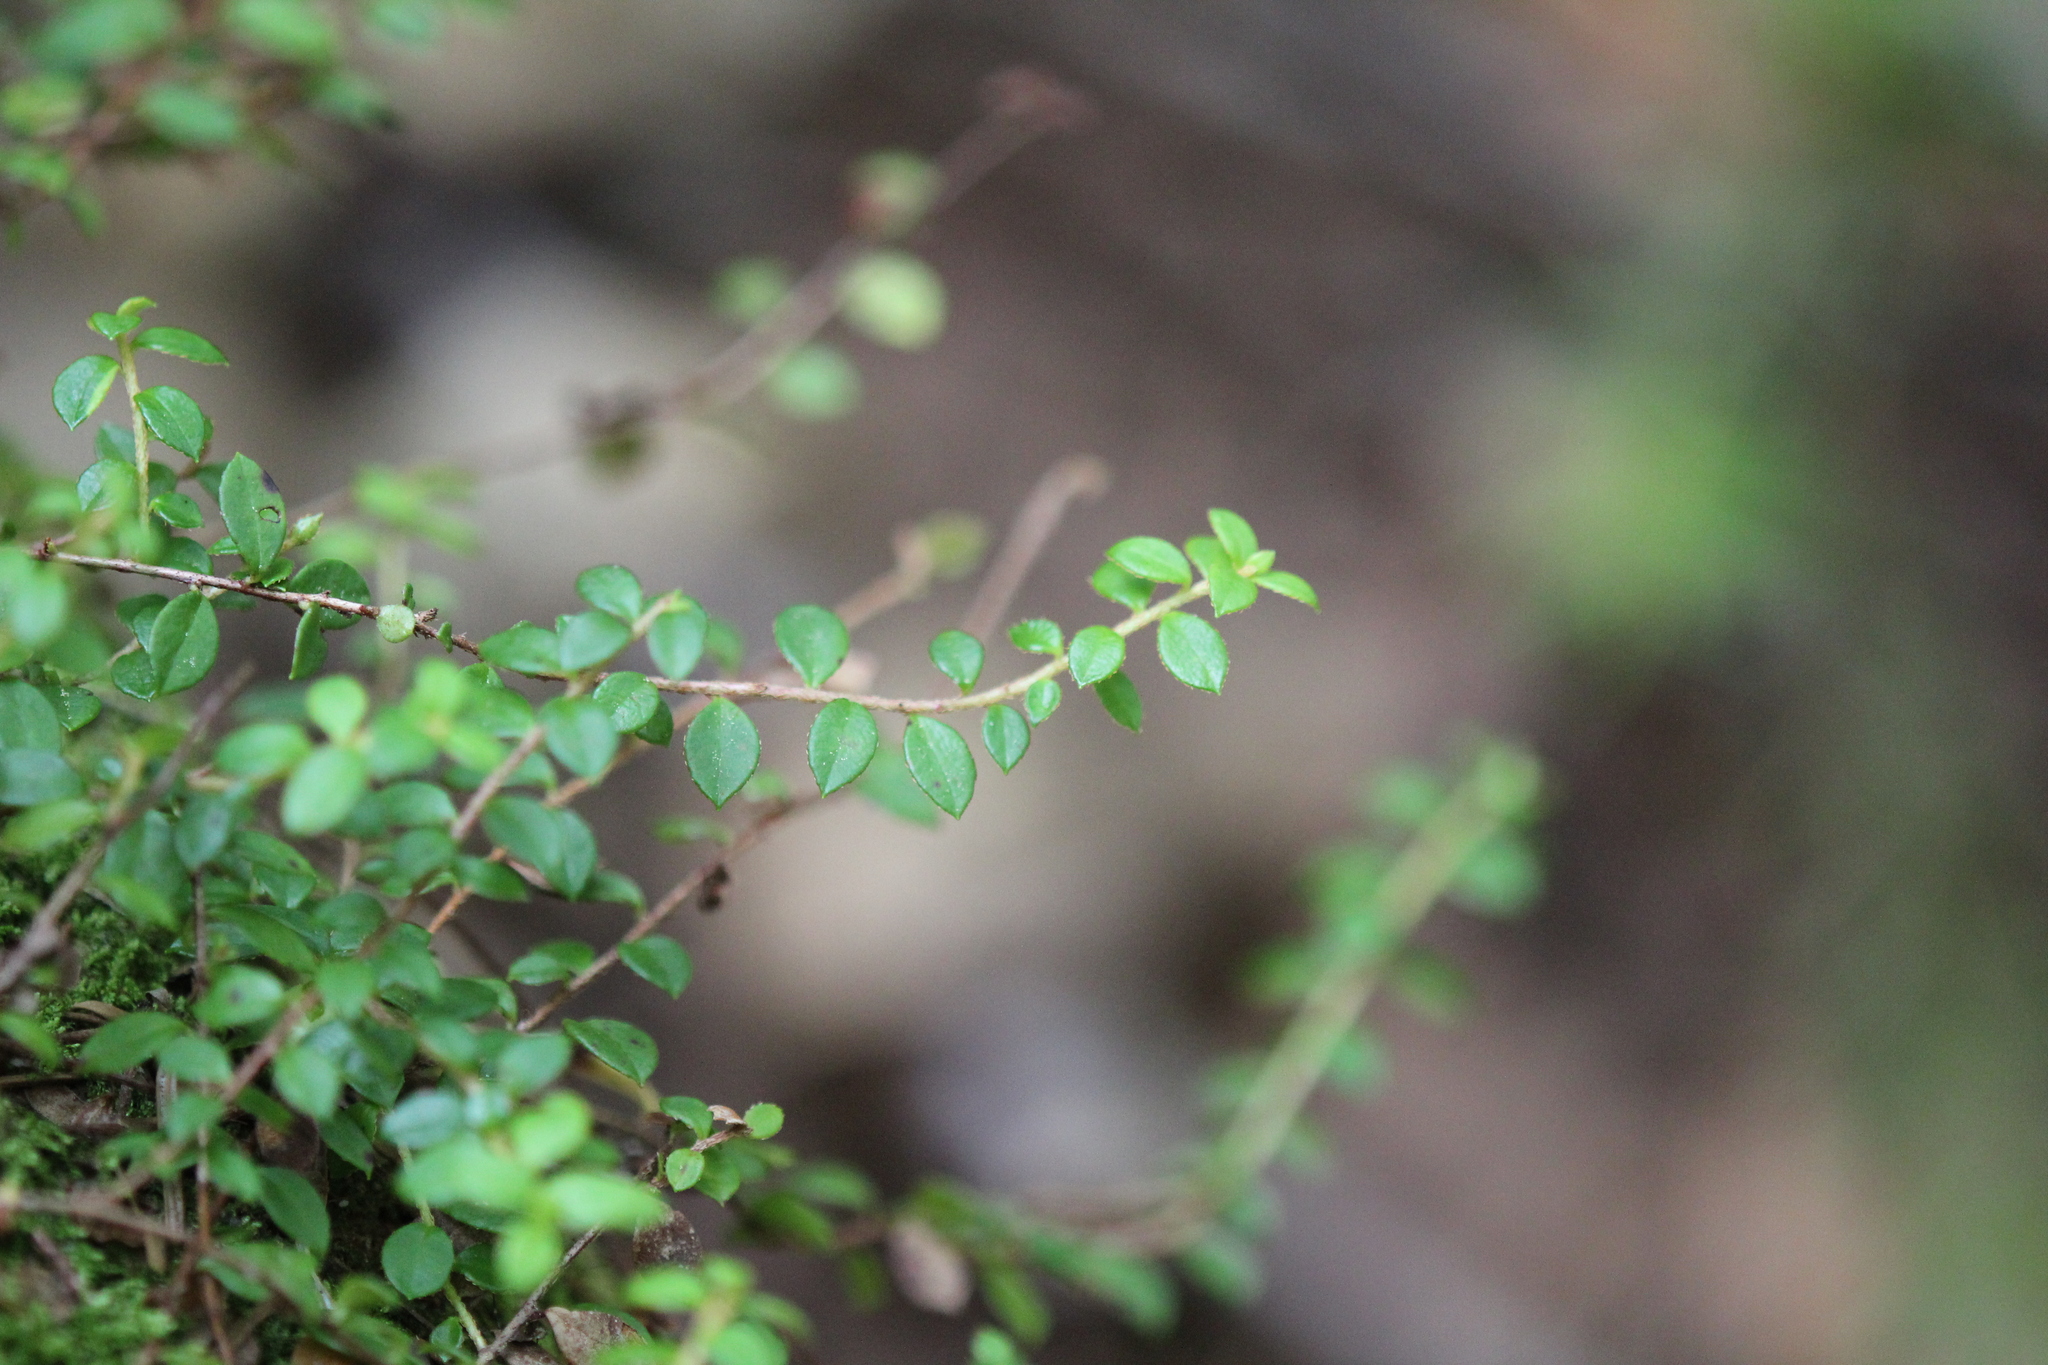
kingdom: Plantae
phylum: Tracheophyta
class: Magnoliopsida
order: Ericales
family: Ericaceae
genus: Gaultheria
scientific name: Gaultheria hispidula
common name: Cancer wintergreen
